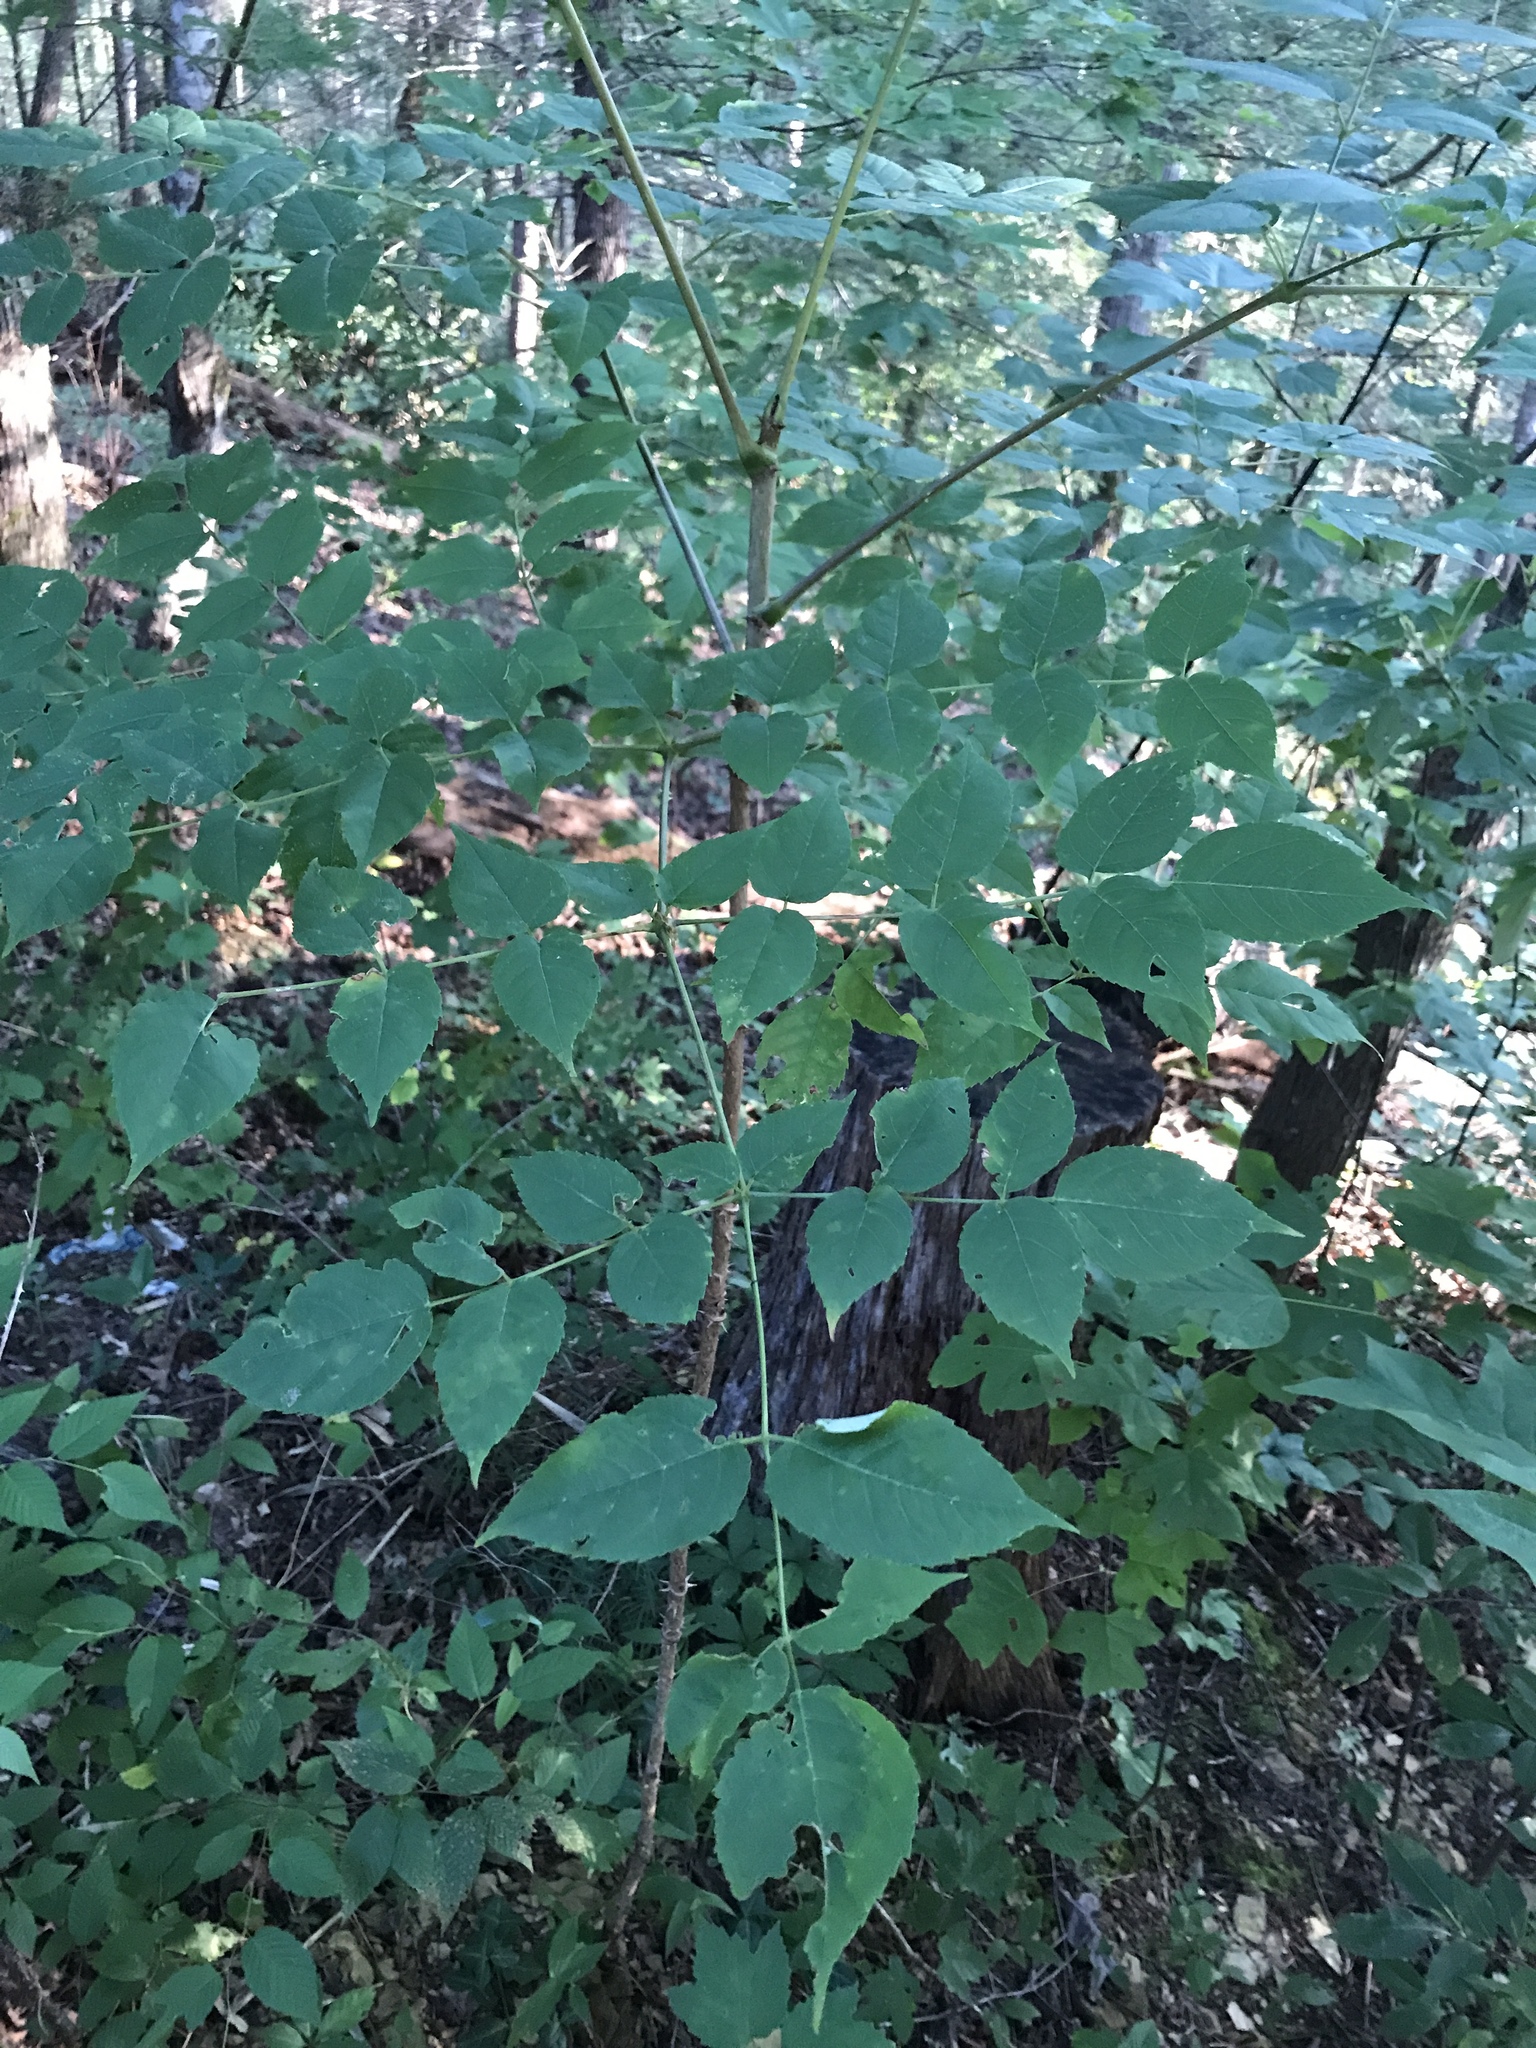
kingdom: Plantae
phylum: Tracheophyta
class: Magnoliopsida
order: Apiales
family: Araliaceae
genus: Aralia
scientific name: Aralia spinosa
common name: Hercules'-club
